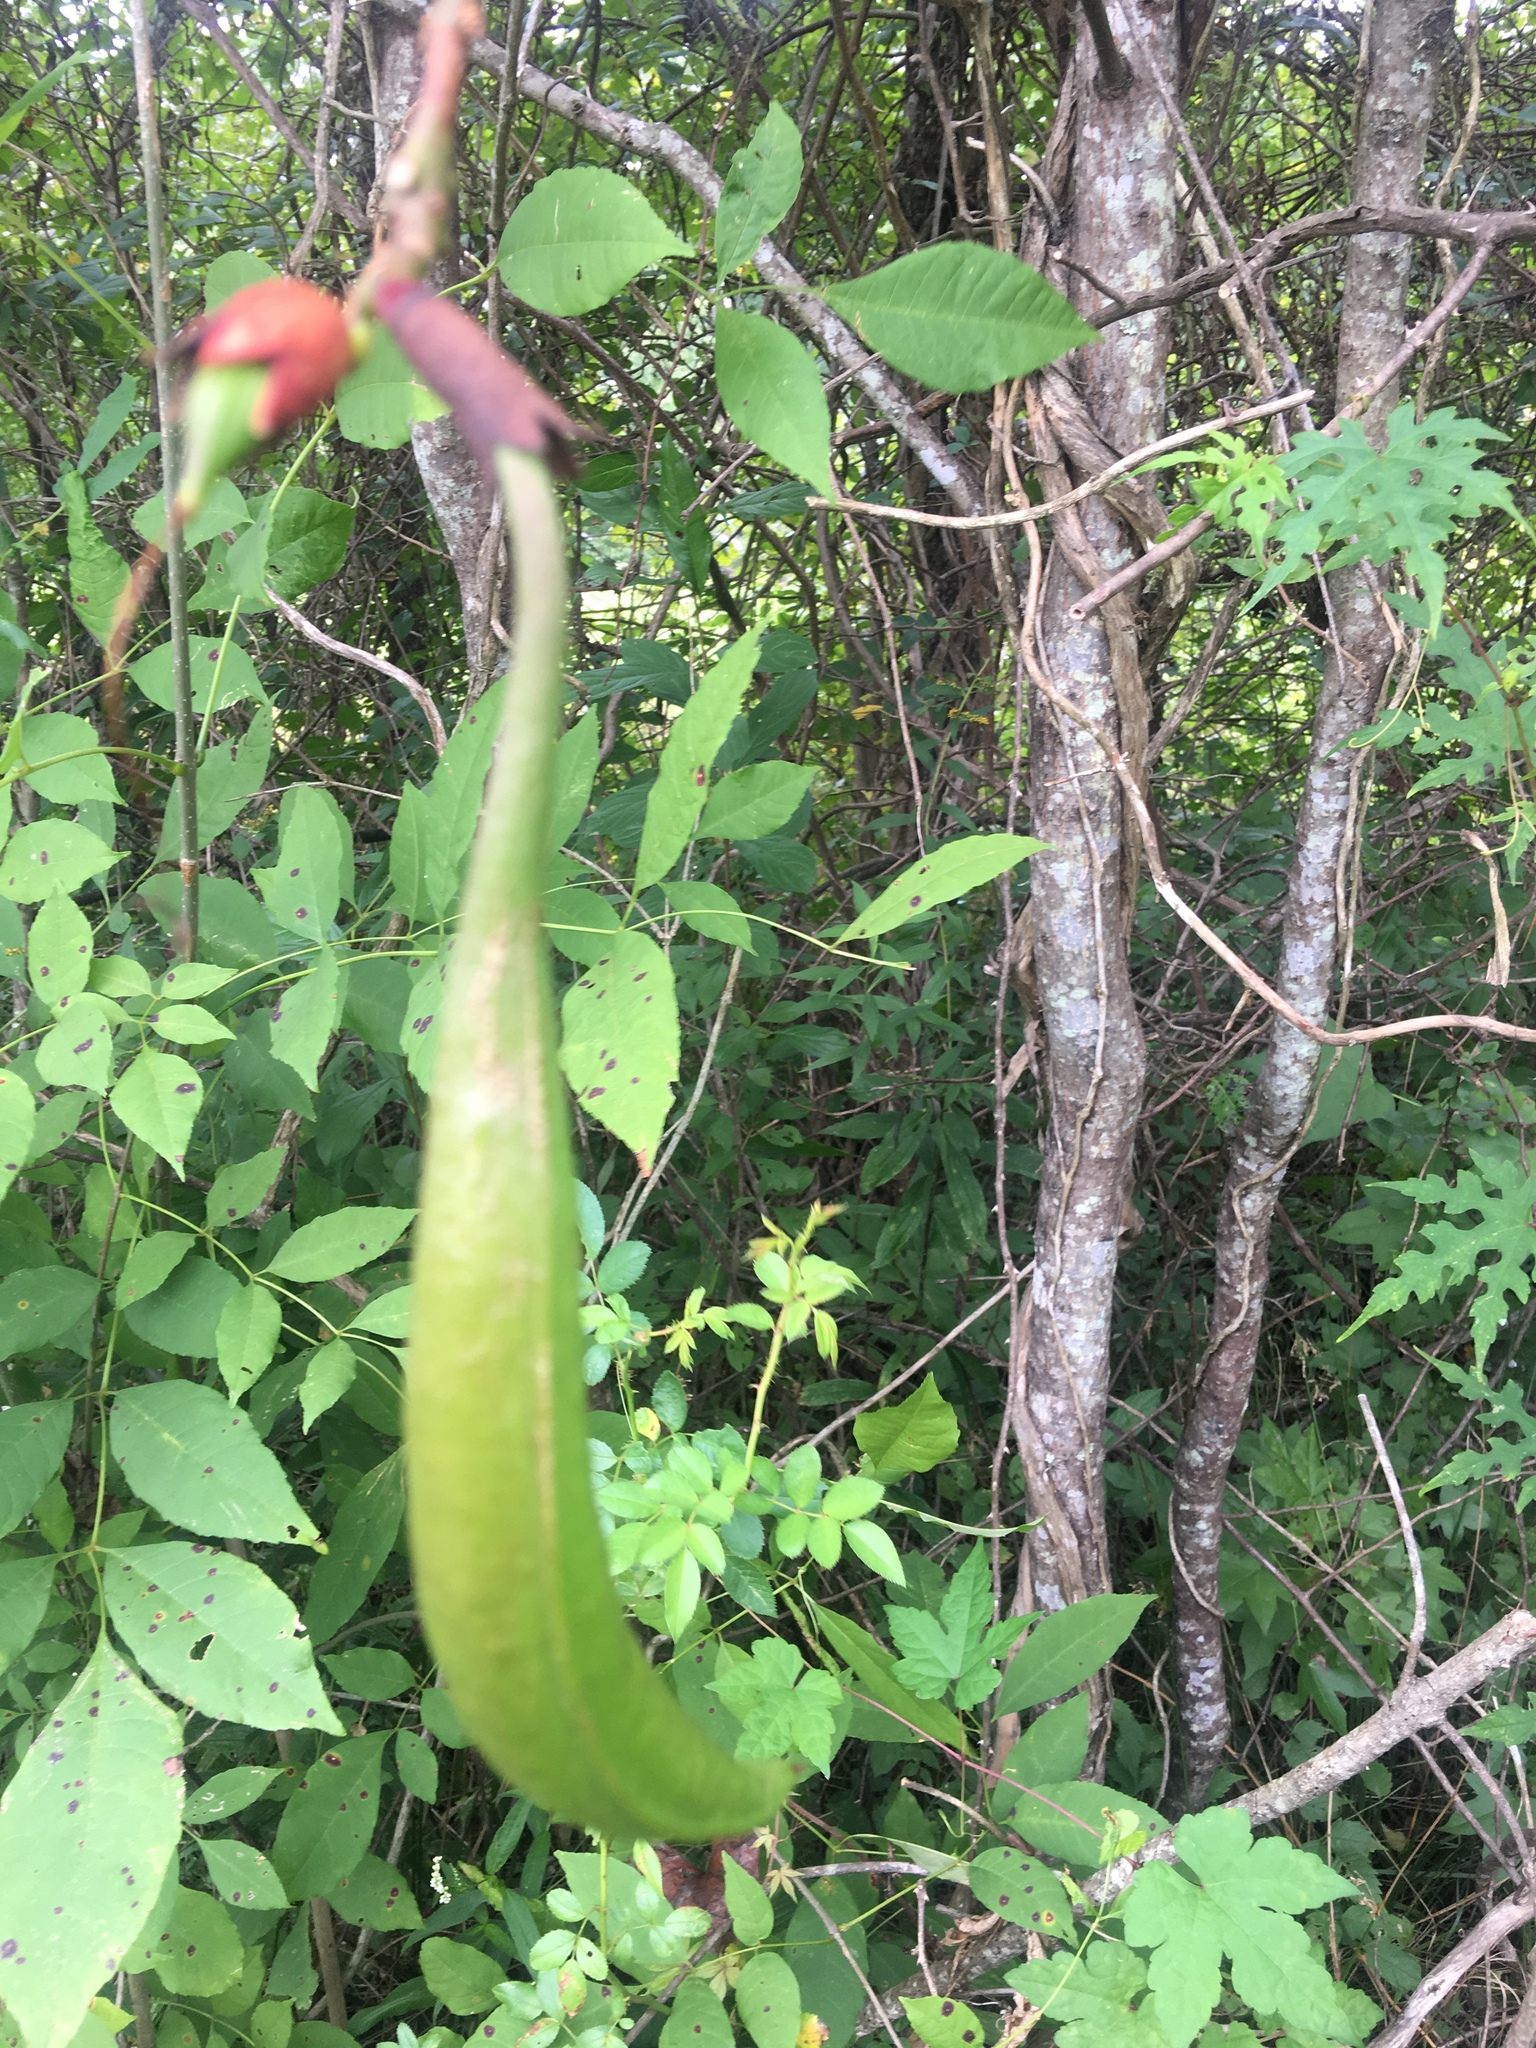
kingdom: Plantae
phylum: Tracheophyta
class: Magnoliopsida
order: Lamiales
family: Bignoniaceae
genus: Campsis
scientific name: Campsis radicans
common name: Trumpet-creeper
